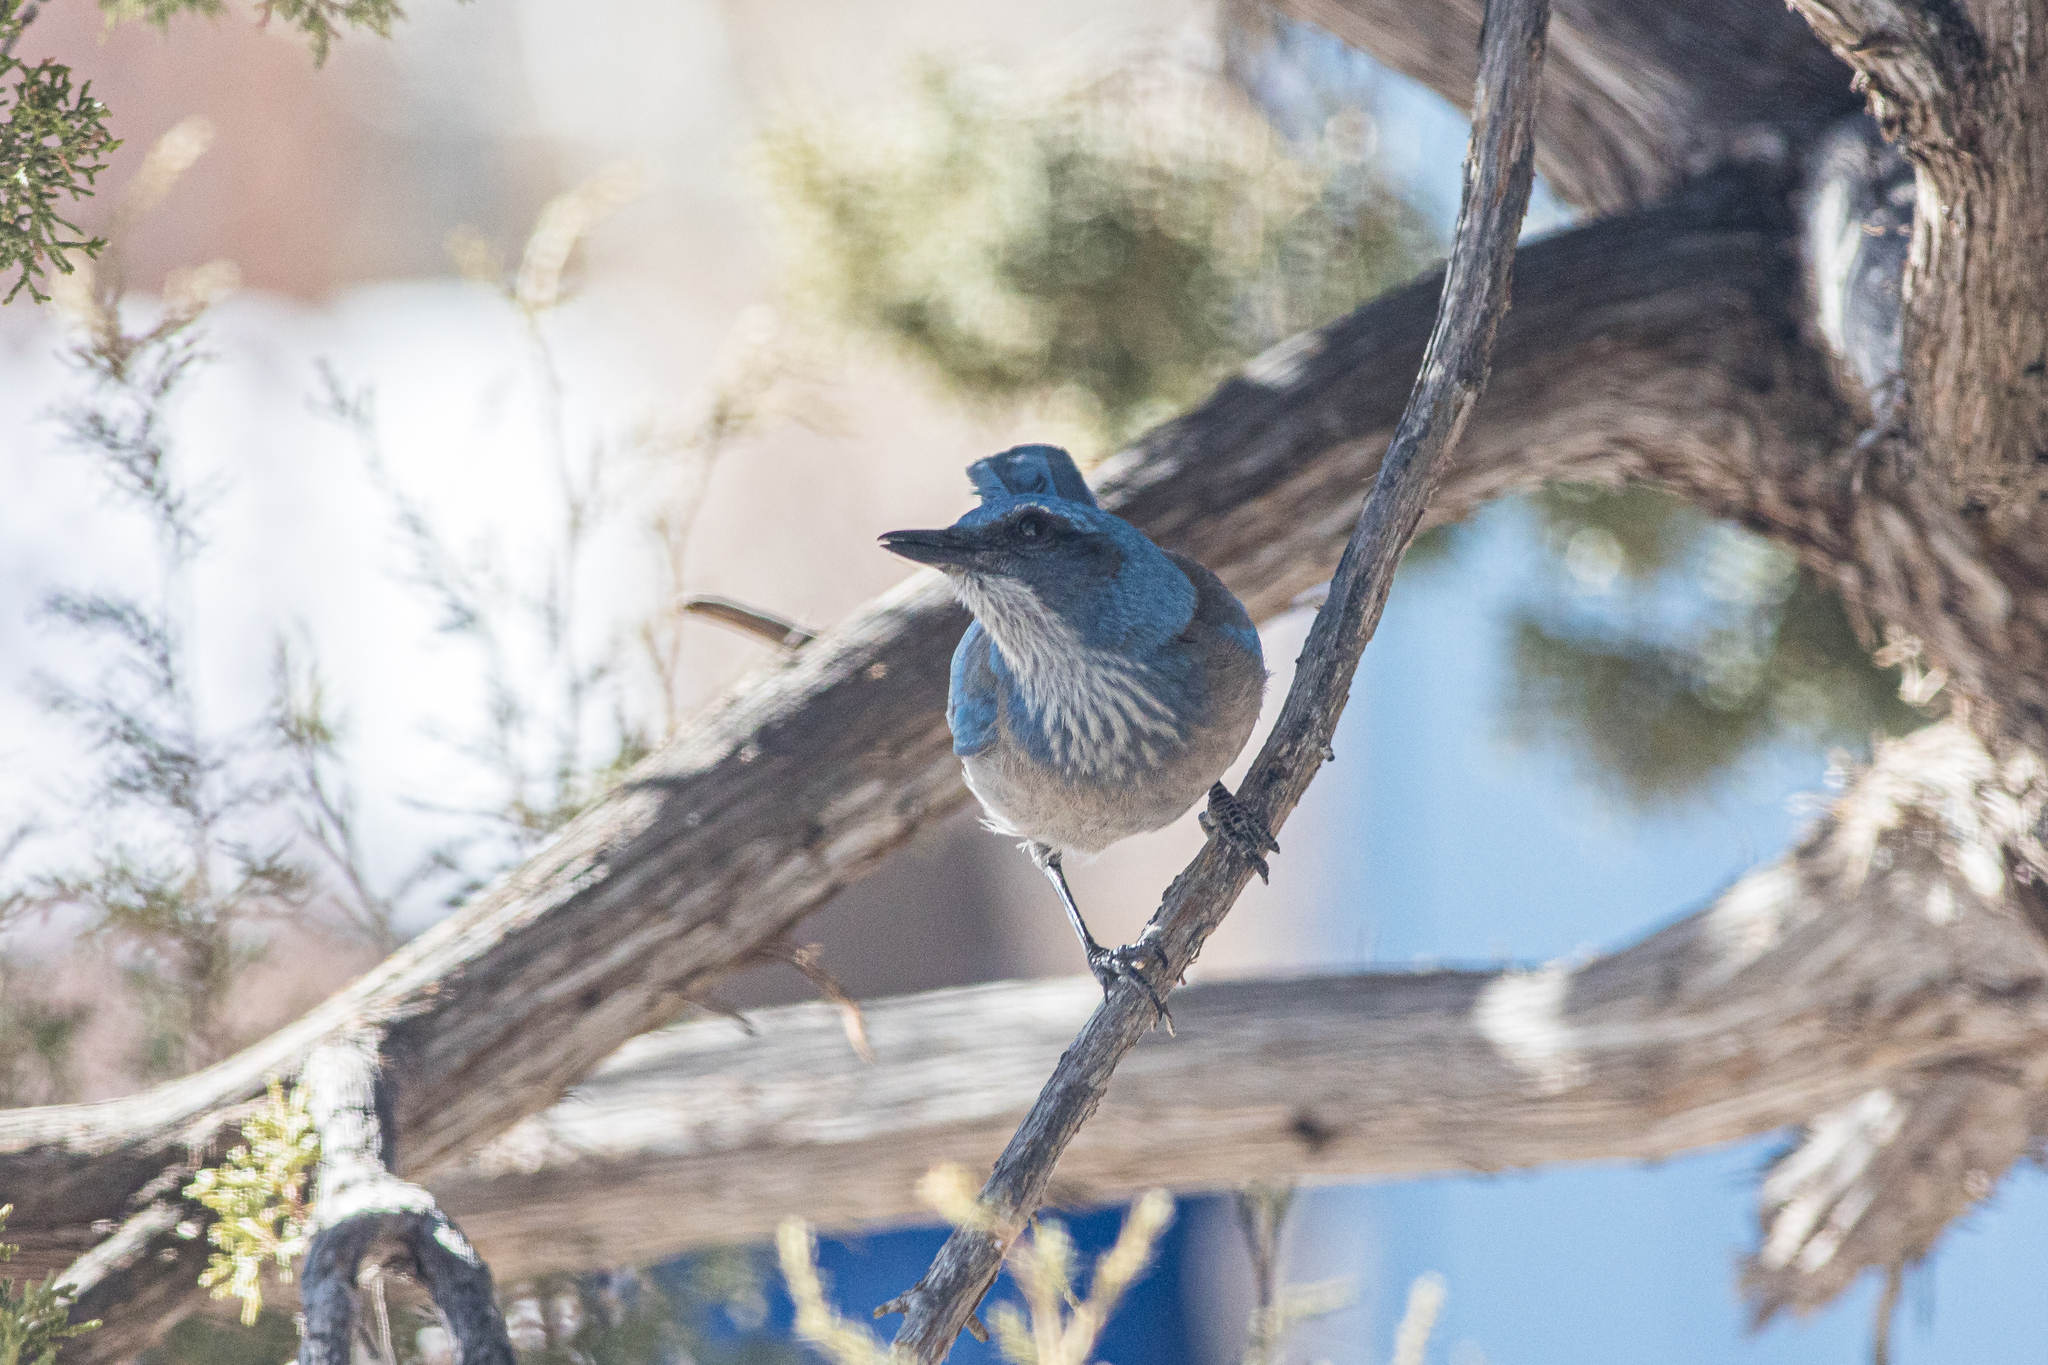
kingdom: Animalia
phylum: Chordata
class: Aves
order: Passeriformes
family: Corvidae
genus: Aphelocoma
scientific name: Aphelocoma woodhouseii
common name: Woodhouse's scrub-jay
